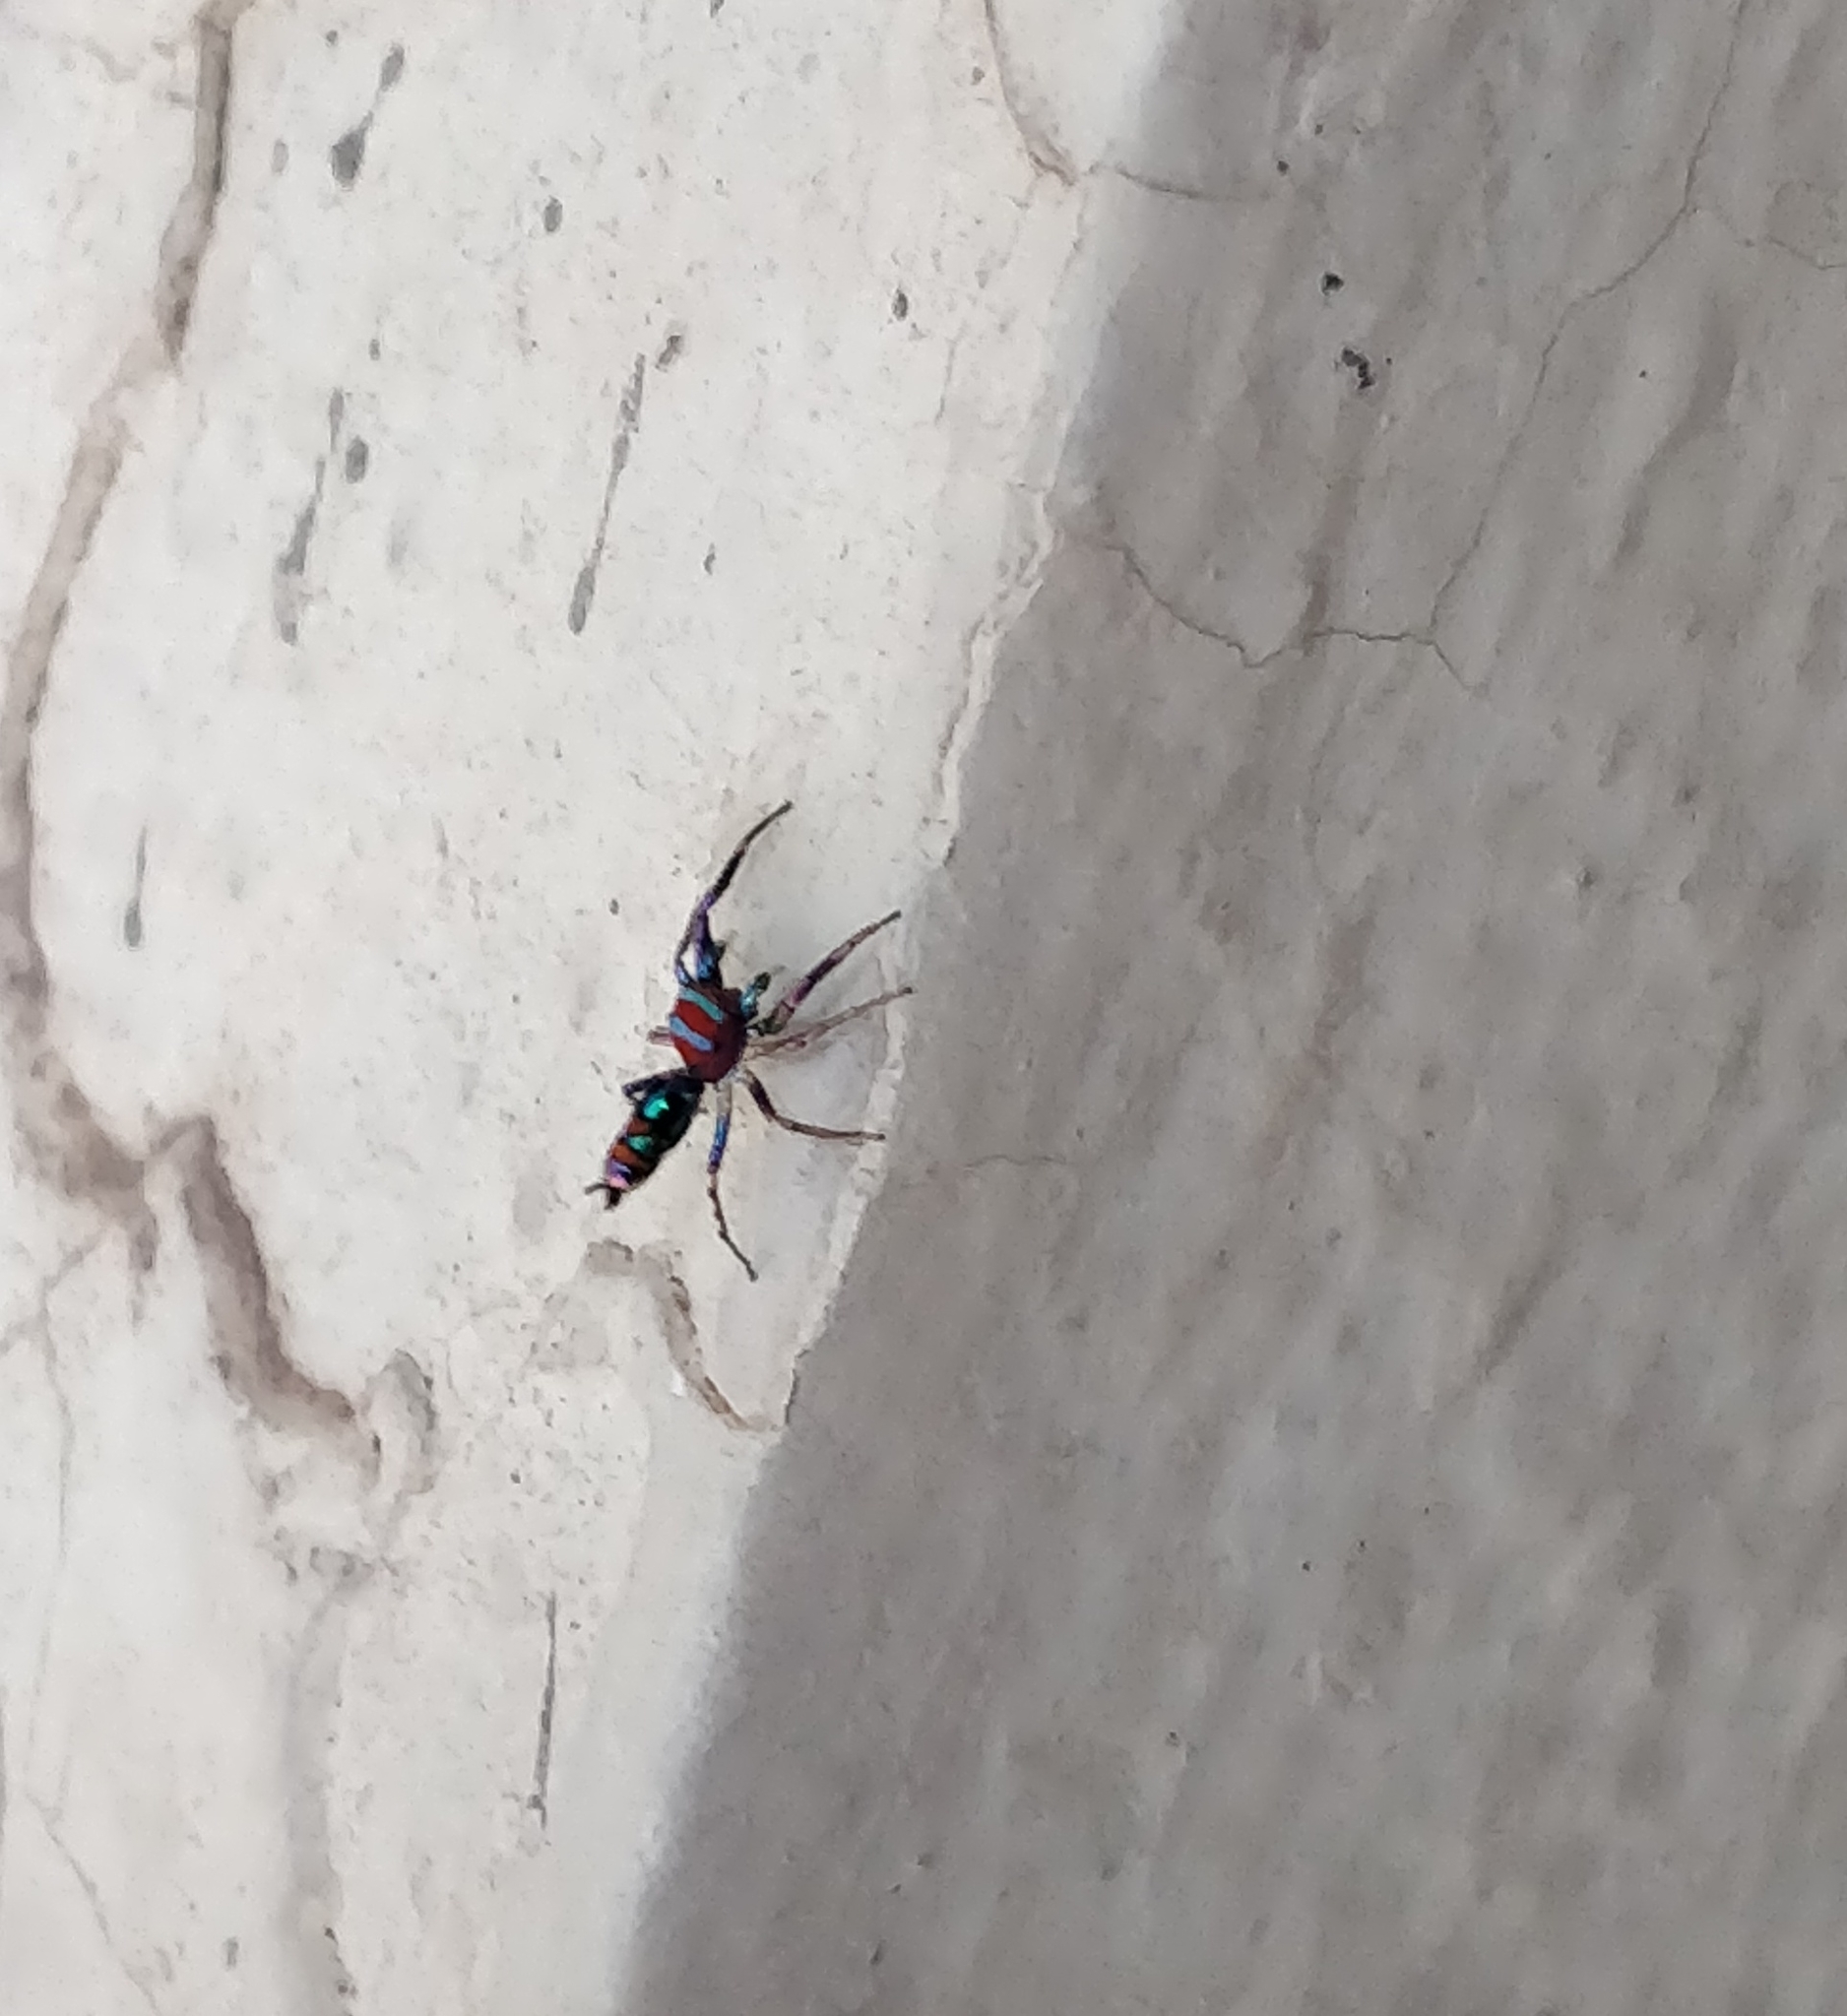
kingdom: Animalia
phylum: Arthropoda
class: Arachnida
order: Araneae
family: Salticidae
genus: Chrysilla
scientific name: Chrysilla volupe
